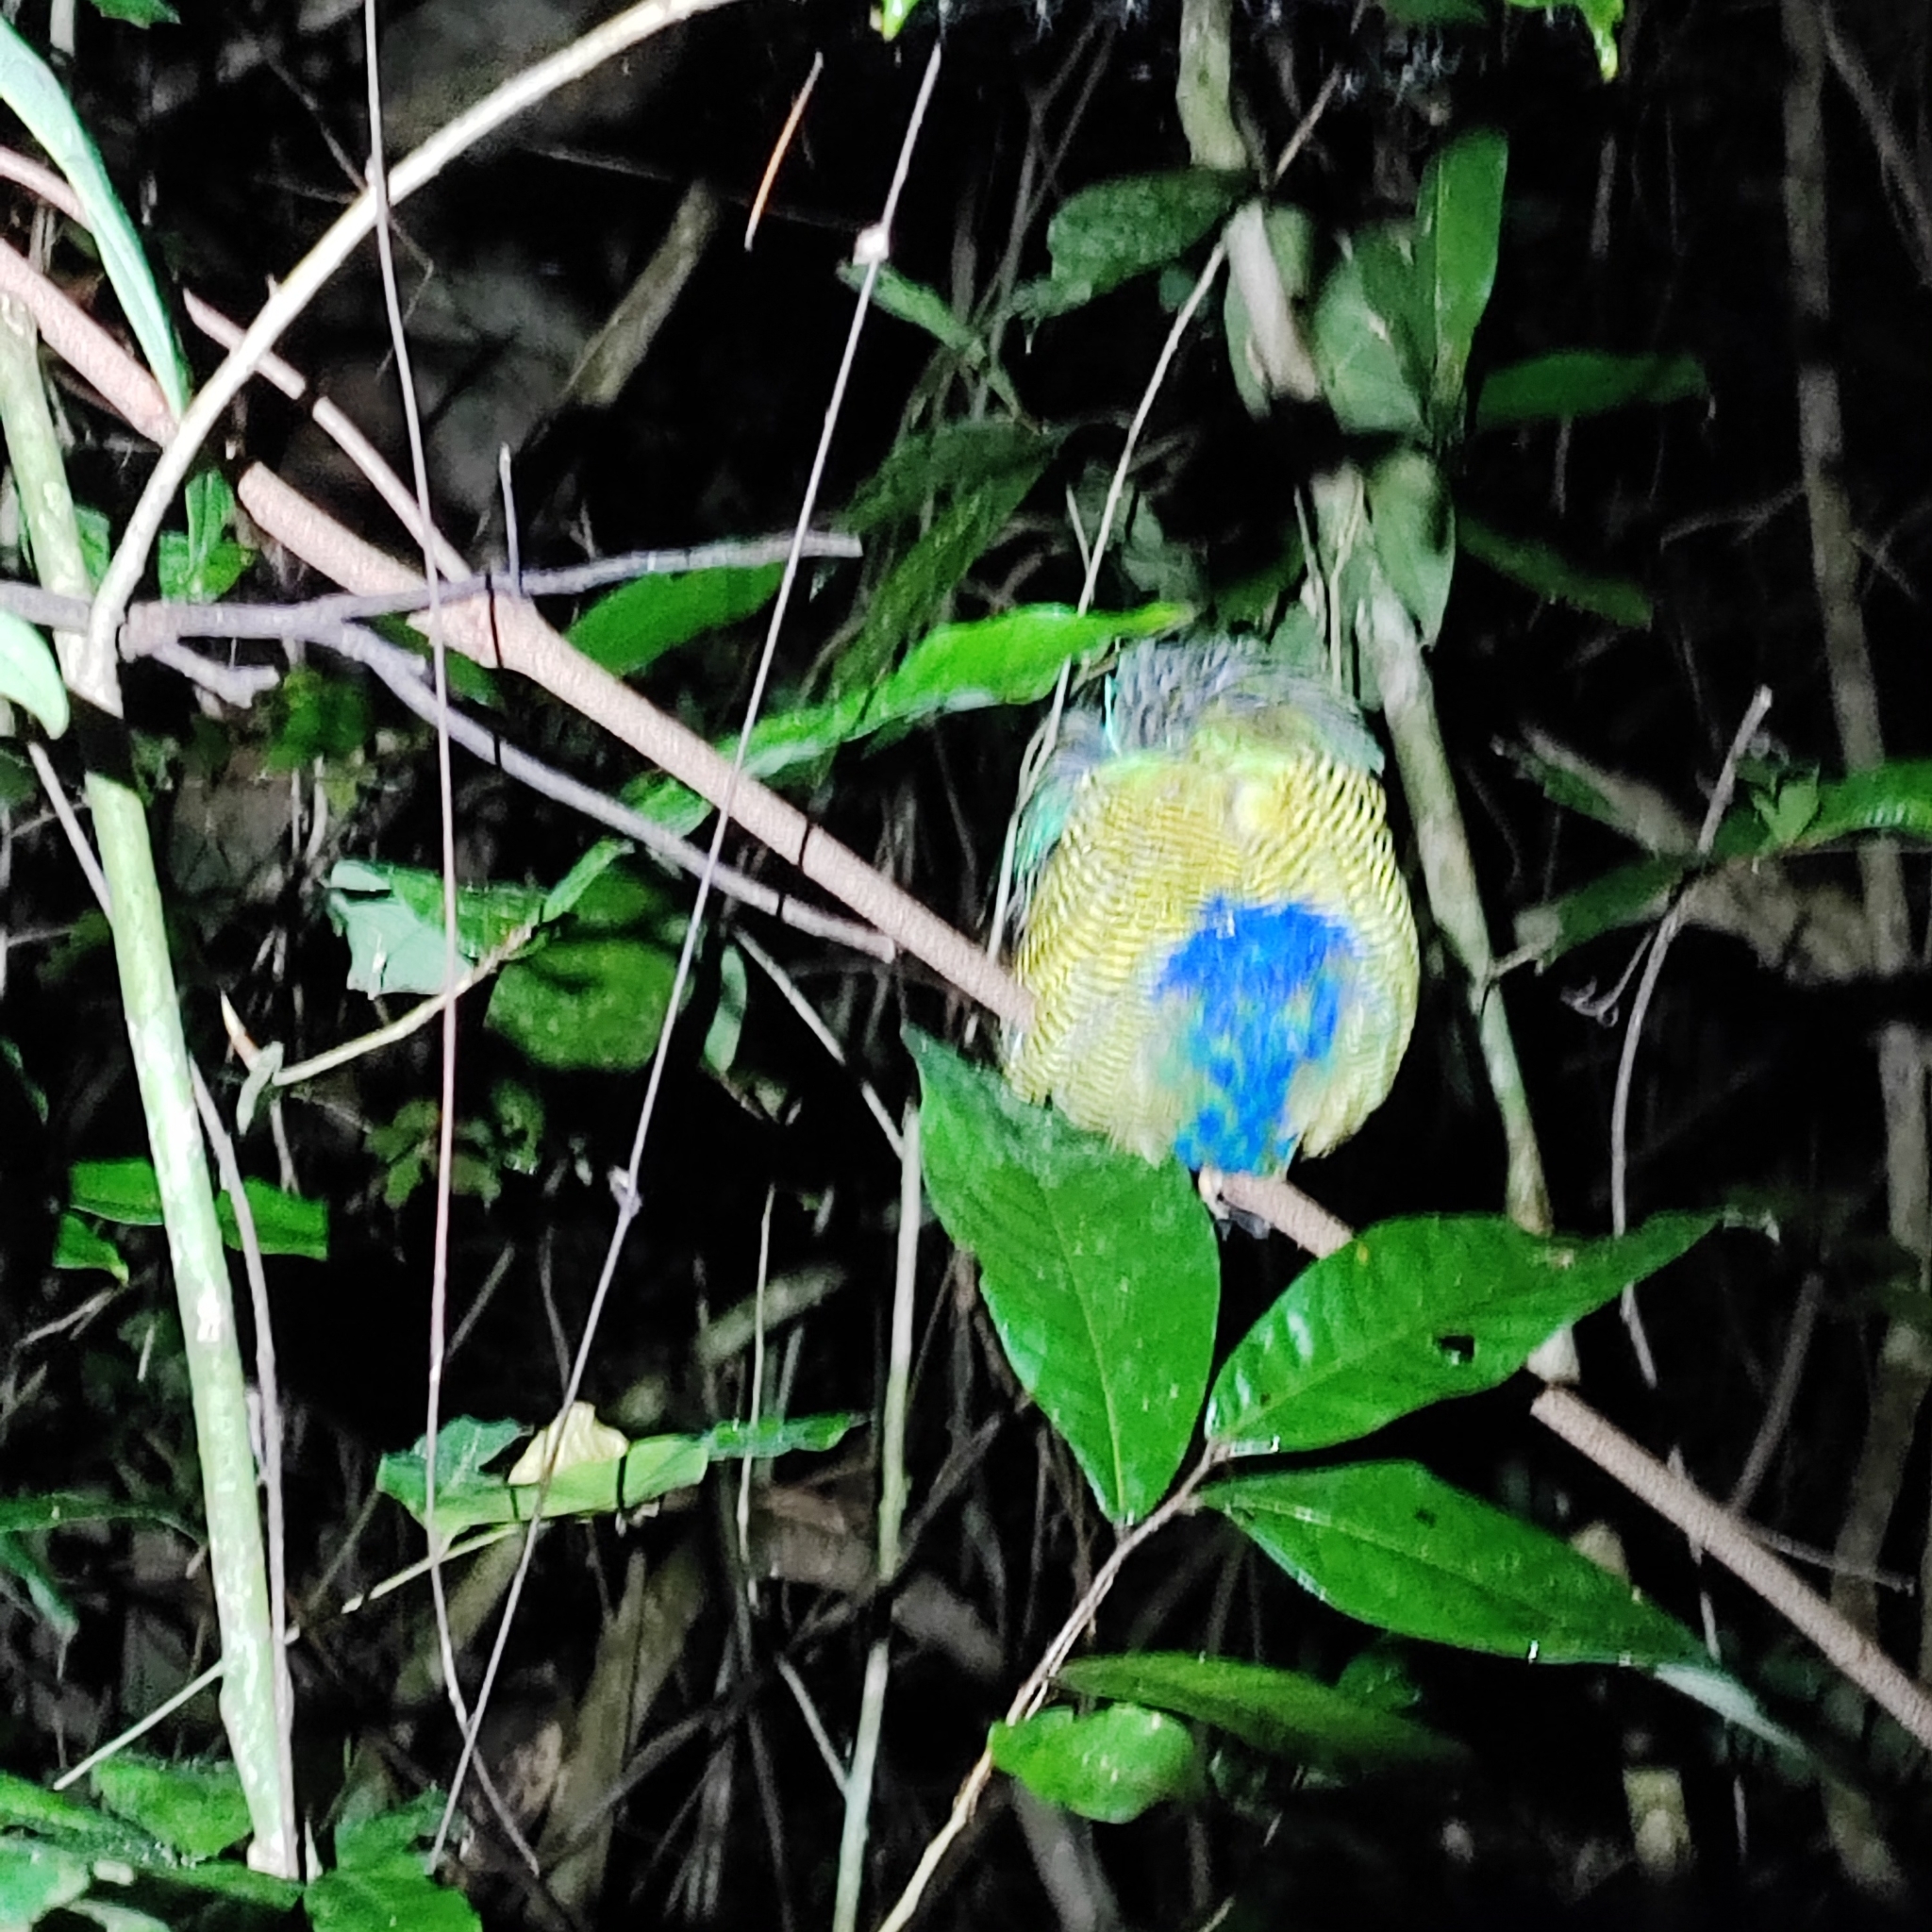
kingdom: Animalia
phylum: Chordata
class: Aves
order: Passeriformes
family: Pittidae
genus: Pitta
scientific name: Pitta elliotii
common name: Bar-bellied pitta
